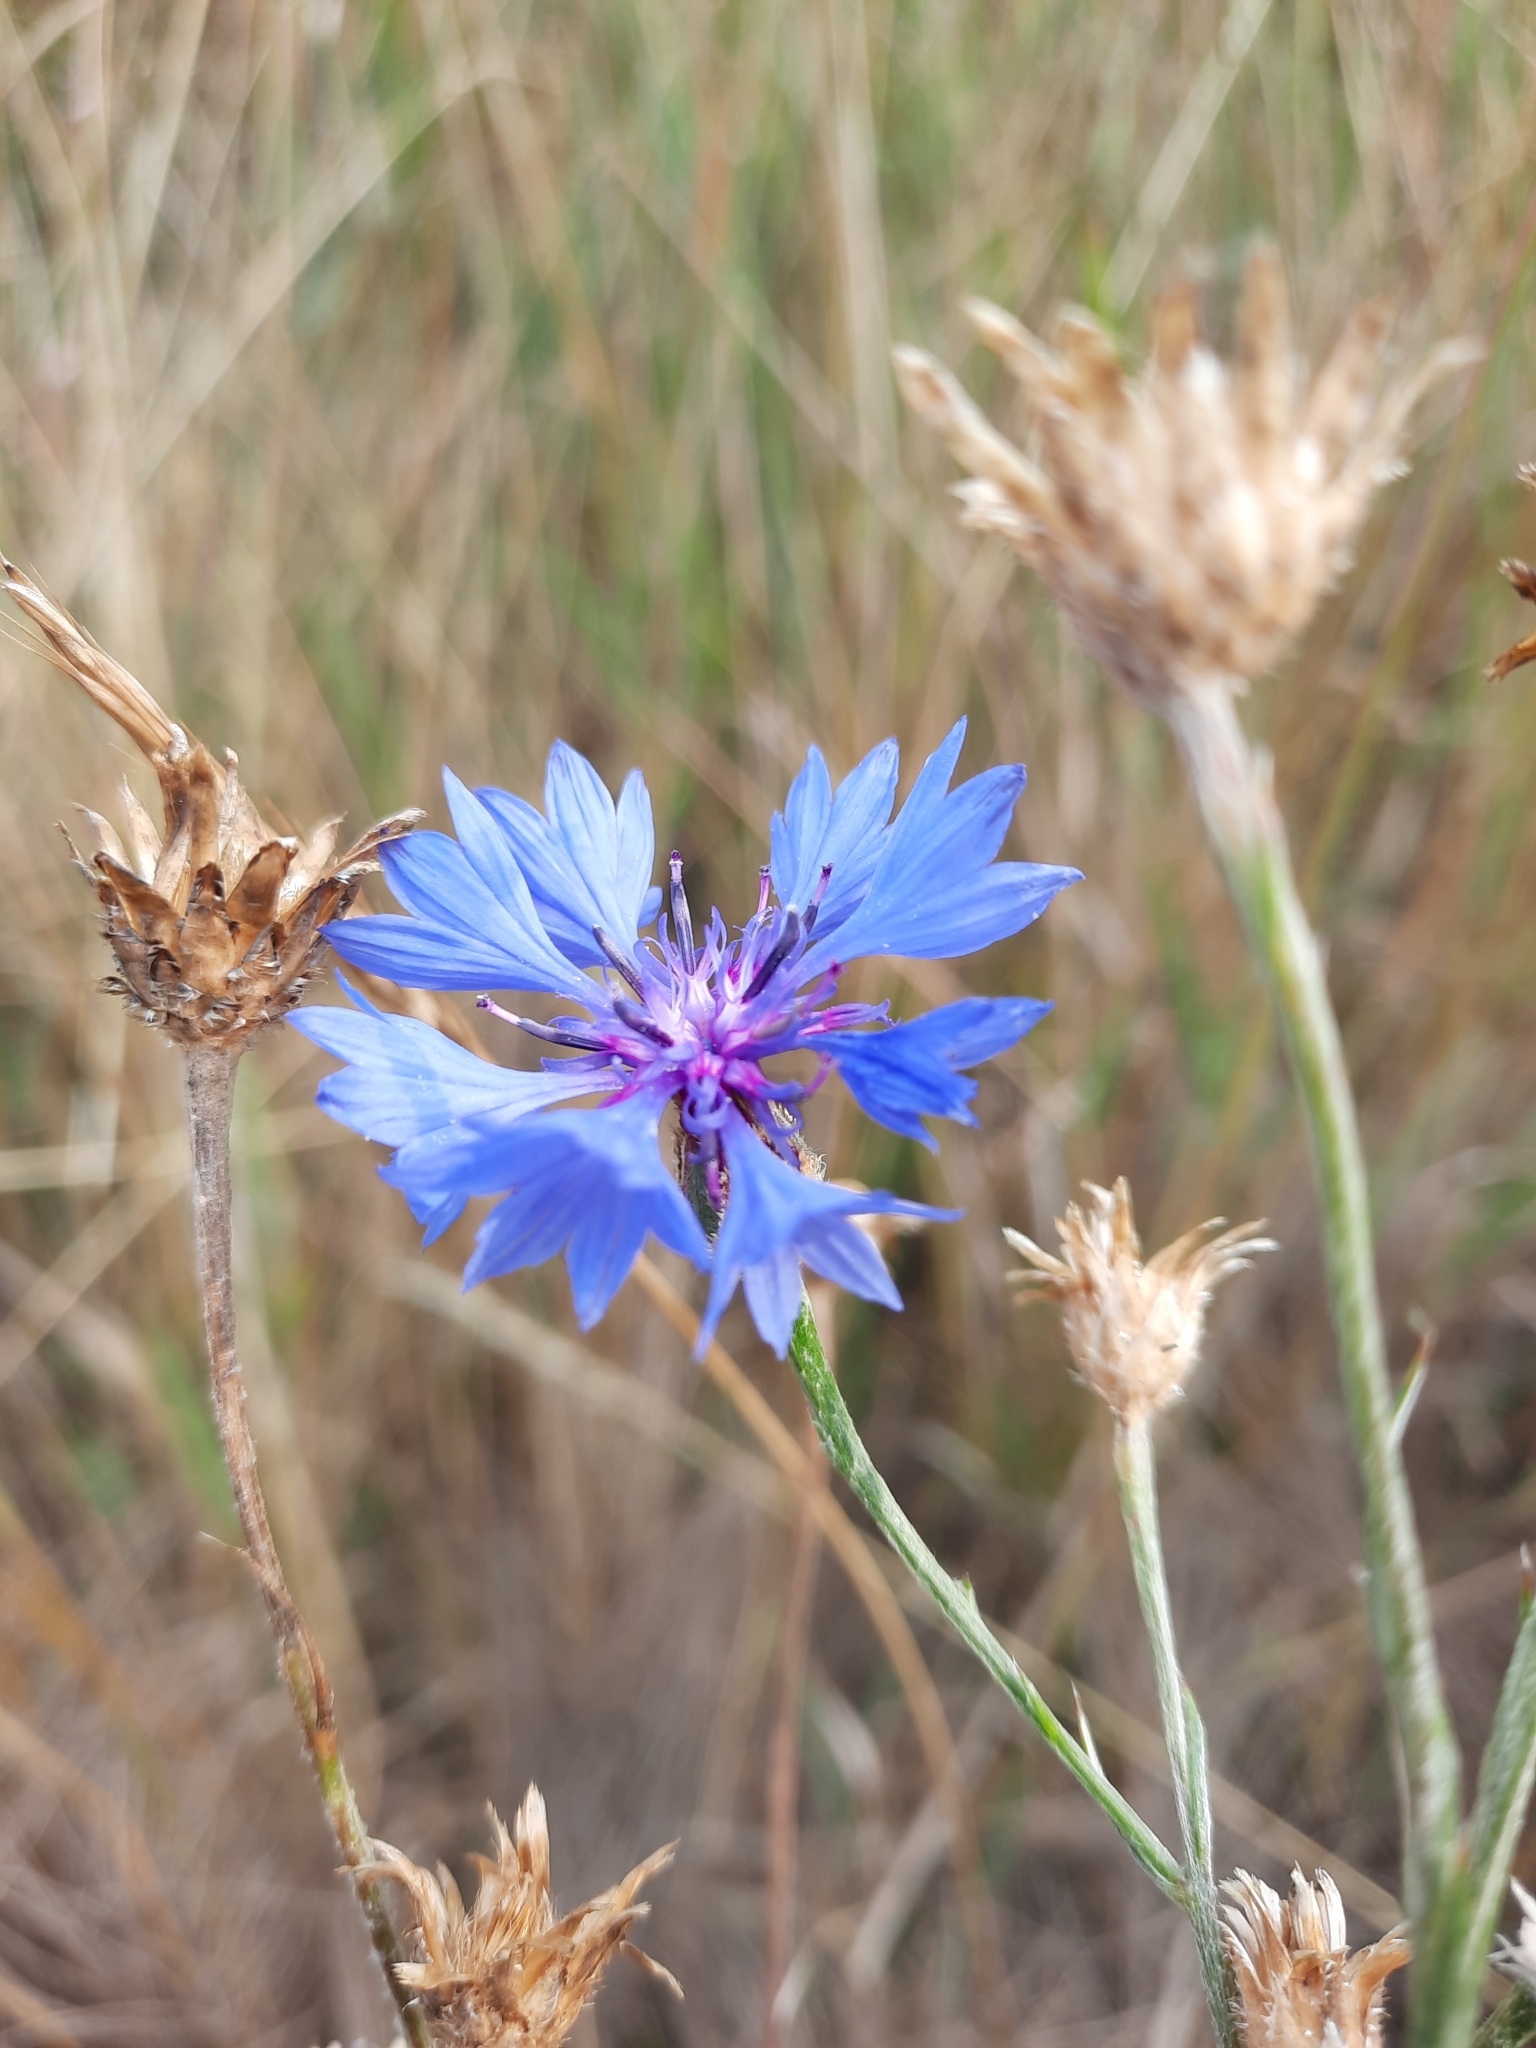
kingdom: Plantae
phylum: Tracheophyta
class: Magnoliopsida
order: Asterales
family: Asteraceae
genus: Centaurea
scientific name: Centaurea cyanus
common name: Cornflower
